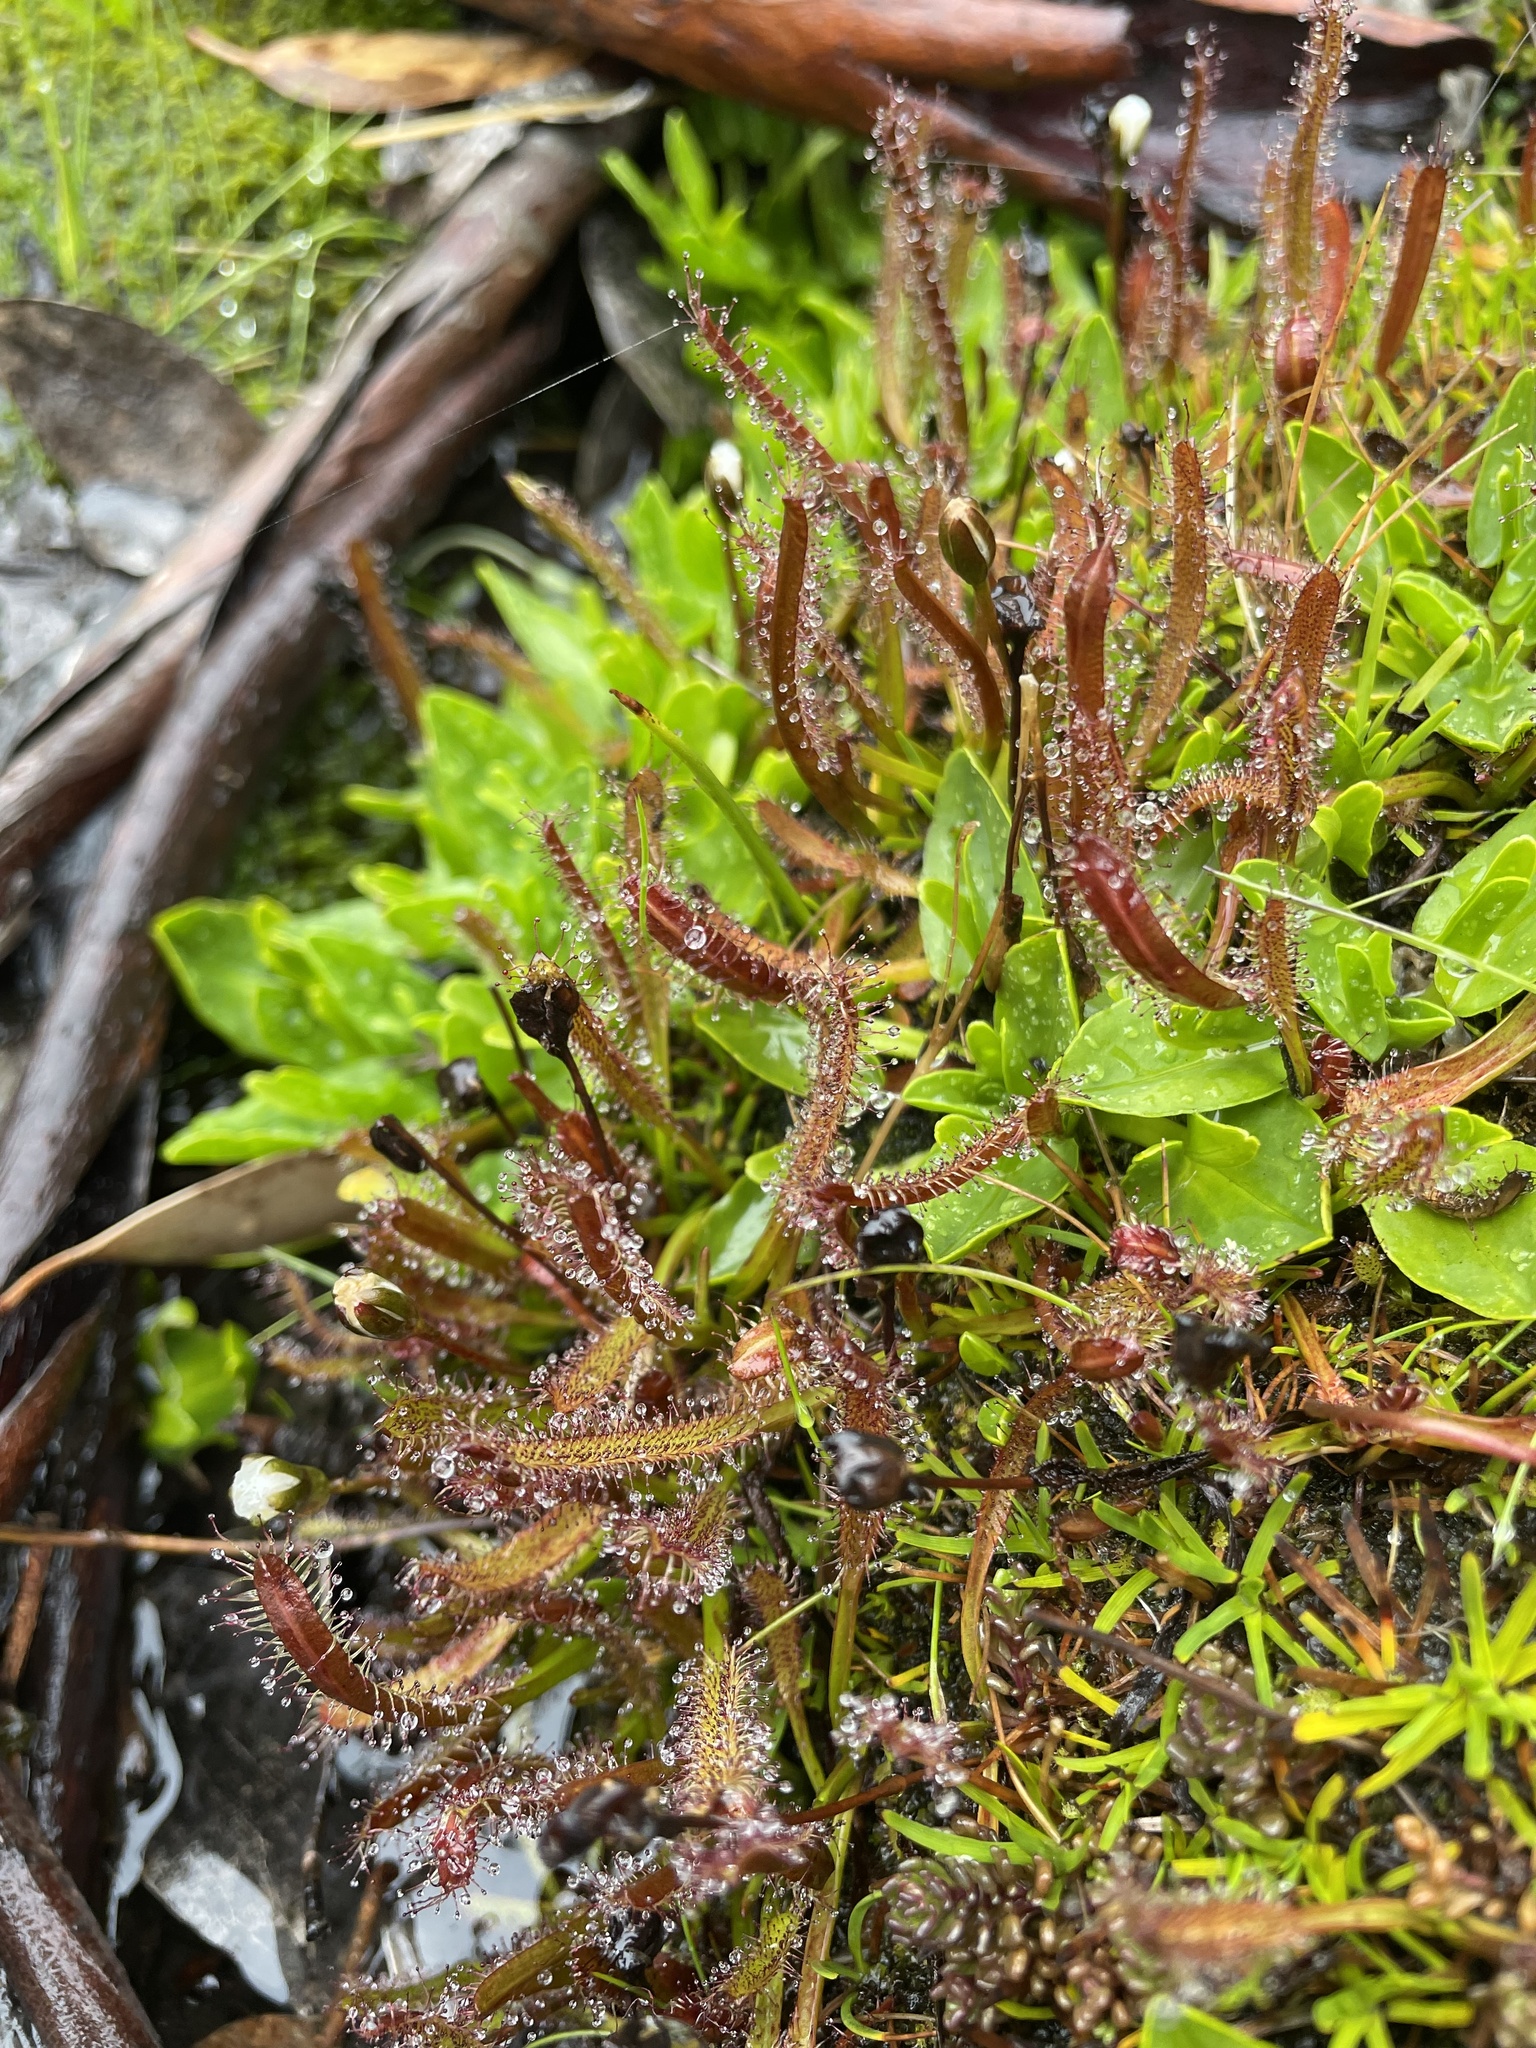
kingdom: Plantae
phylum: Tracheophyta
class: Magnoliopsida
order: Caryophyllales
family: Droseraceae
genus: Drosera
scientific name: Drosera arcturi
